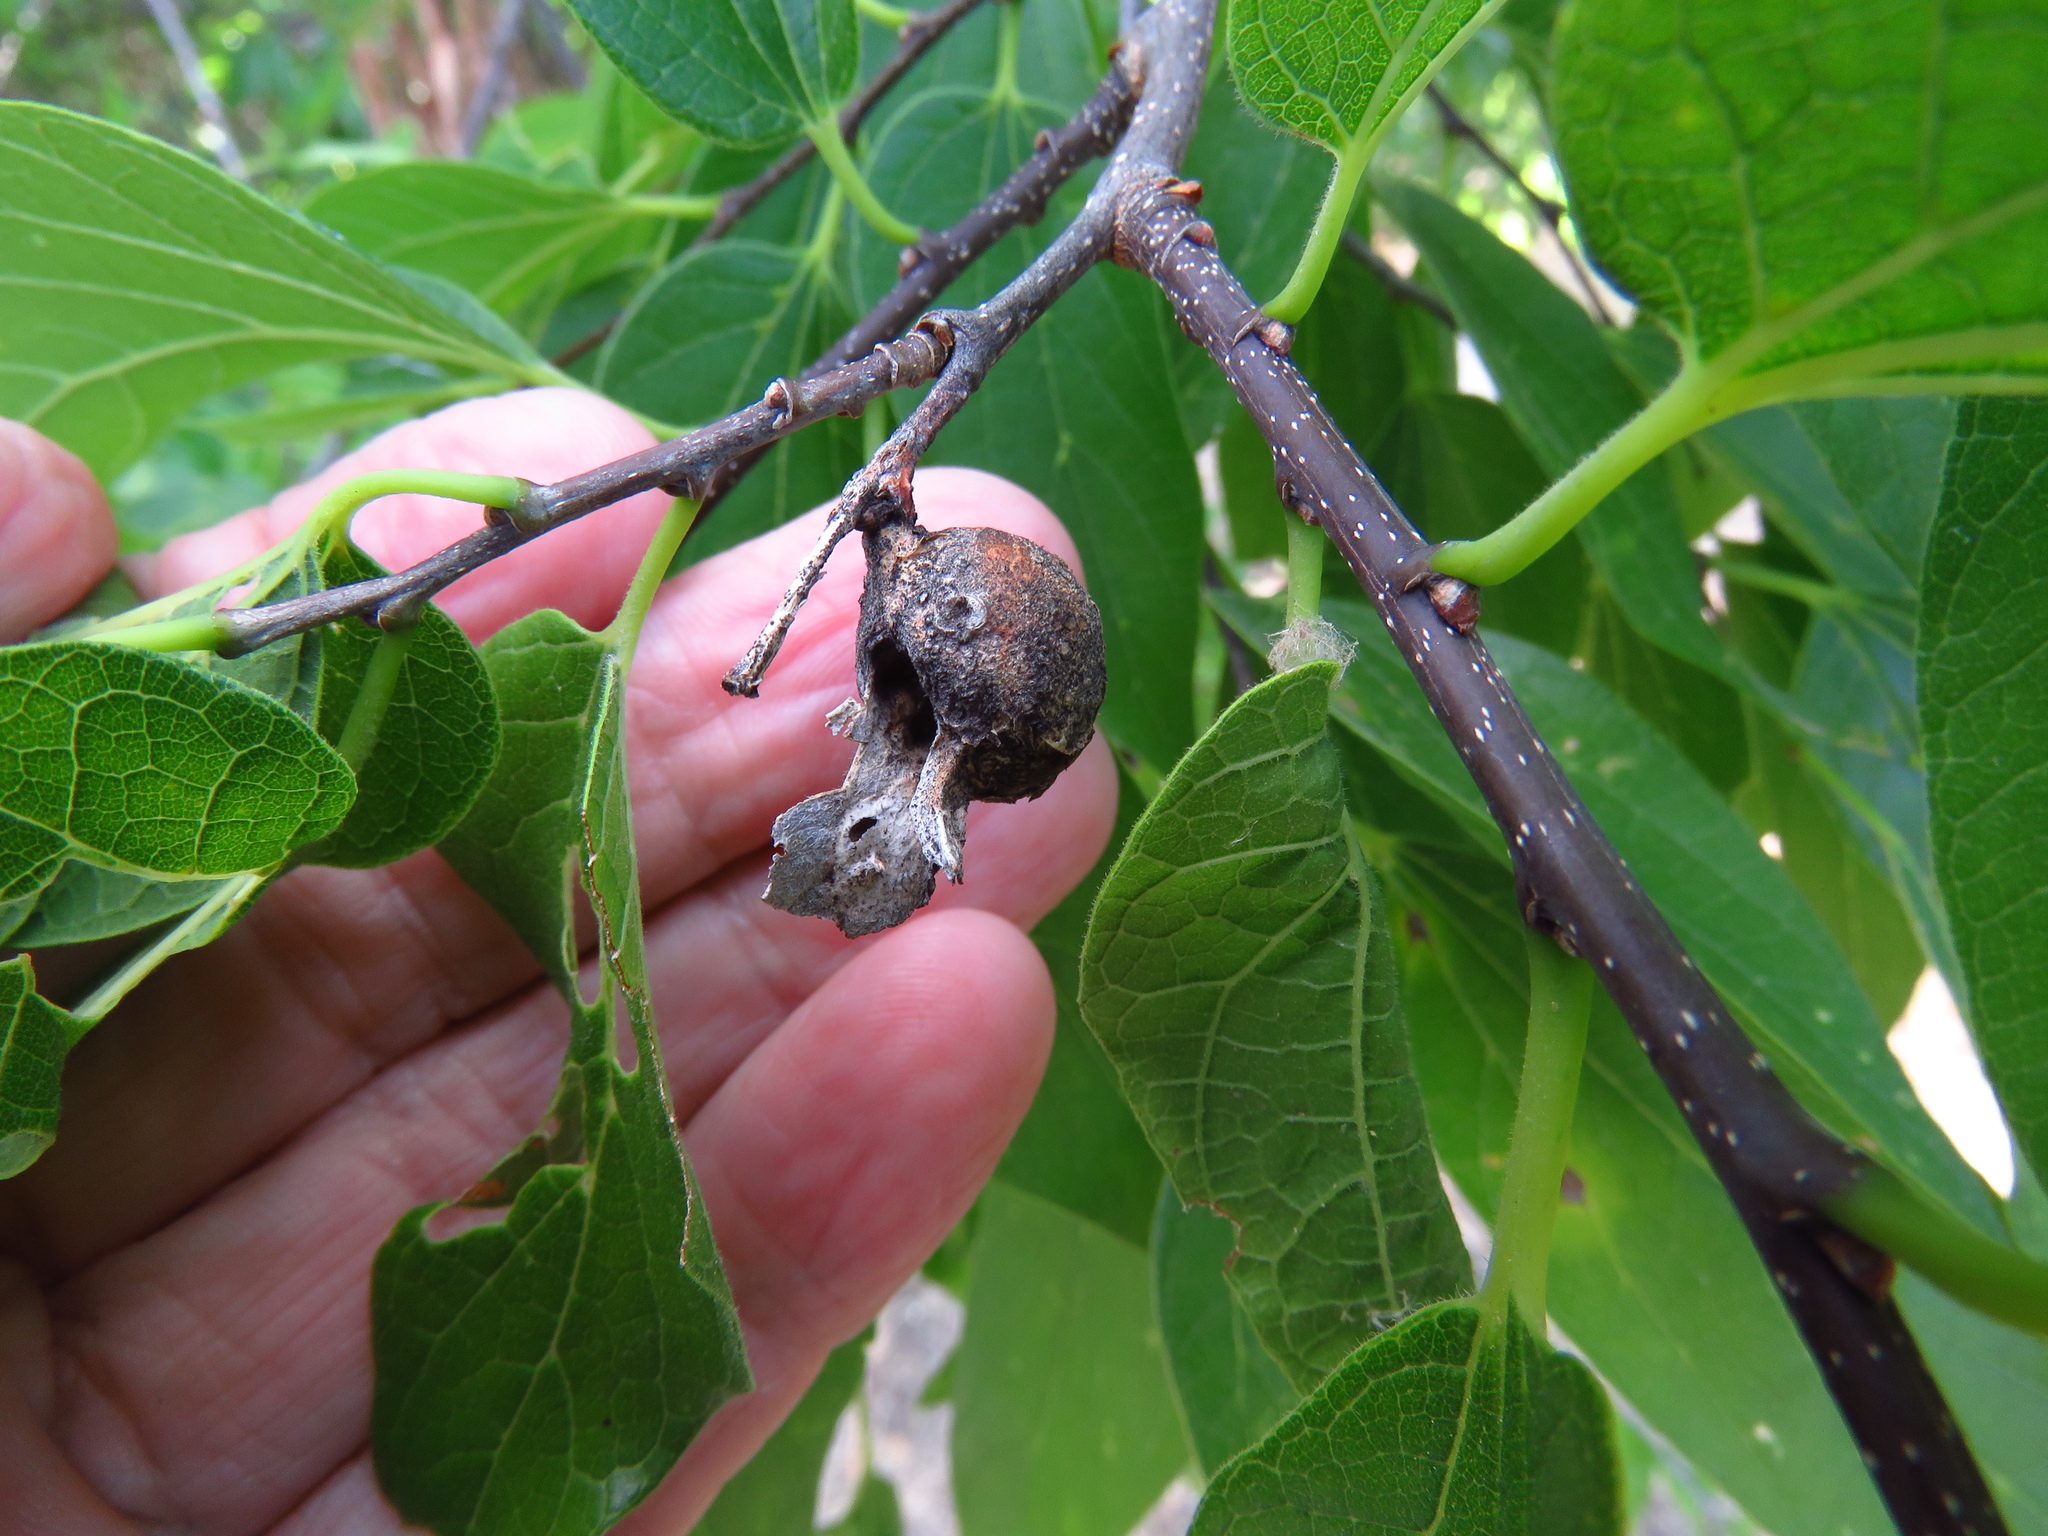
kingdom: Animalia
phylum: Arthropoda
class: Insecta
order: Hemiptera
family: Aphalaridae
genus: Pachypsylla
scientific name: Pachypsylla venusta
